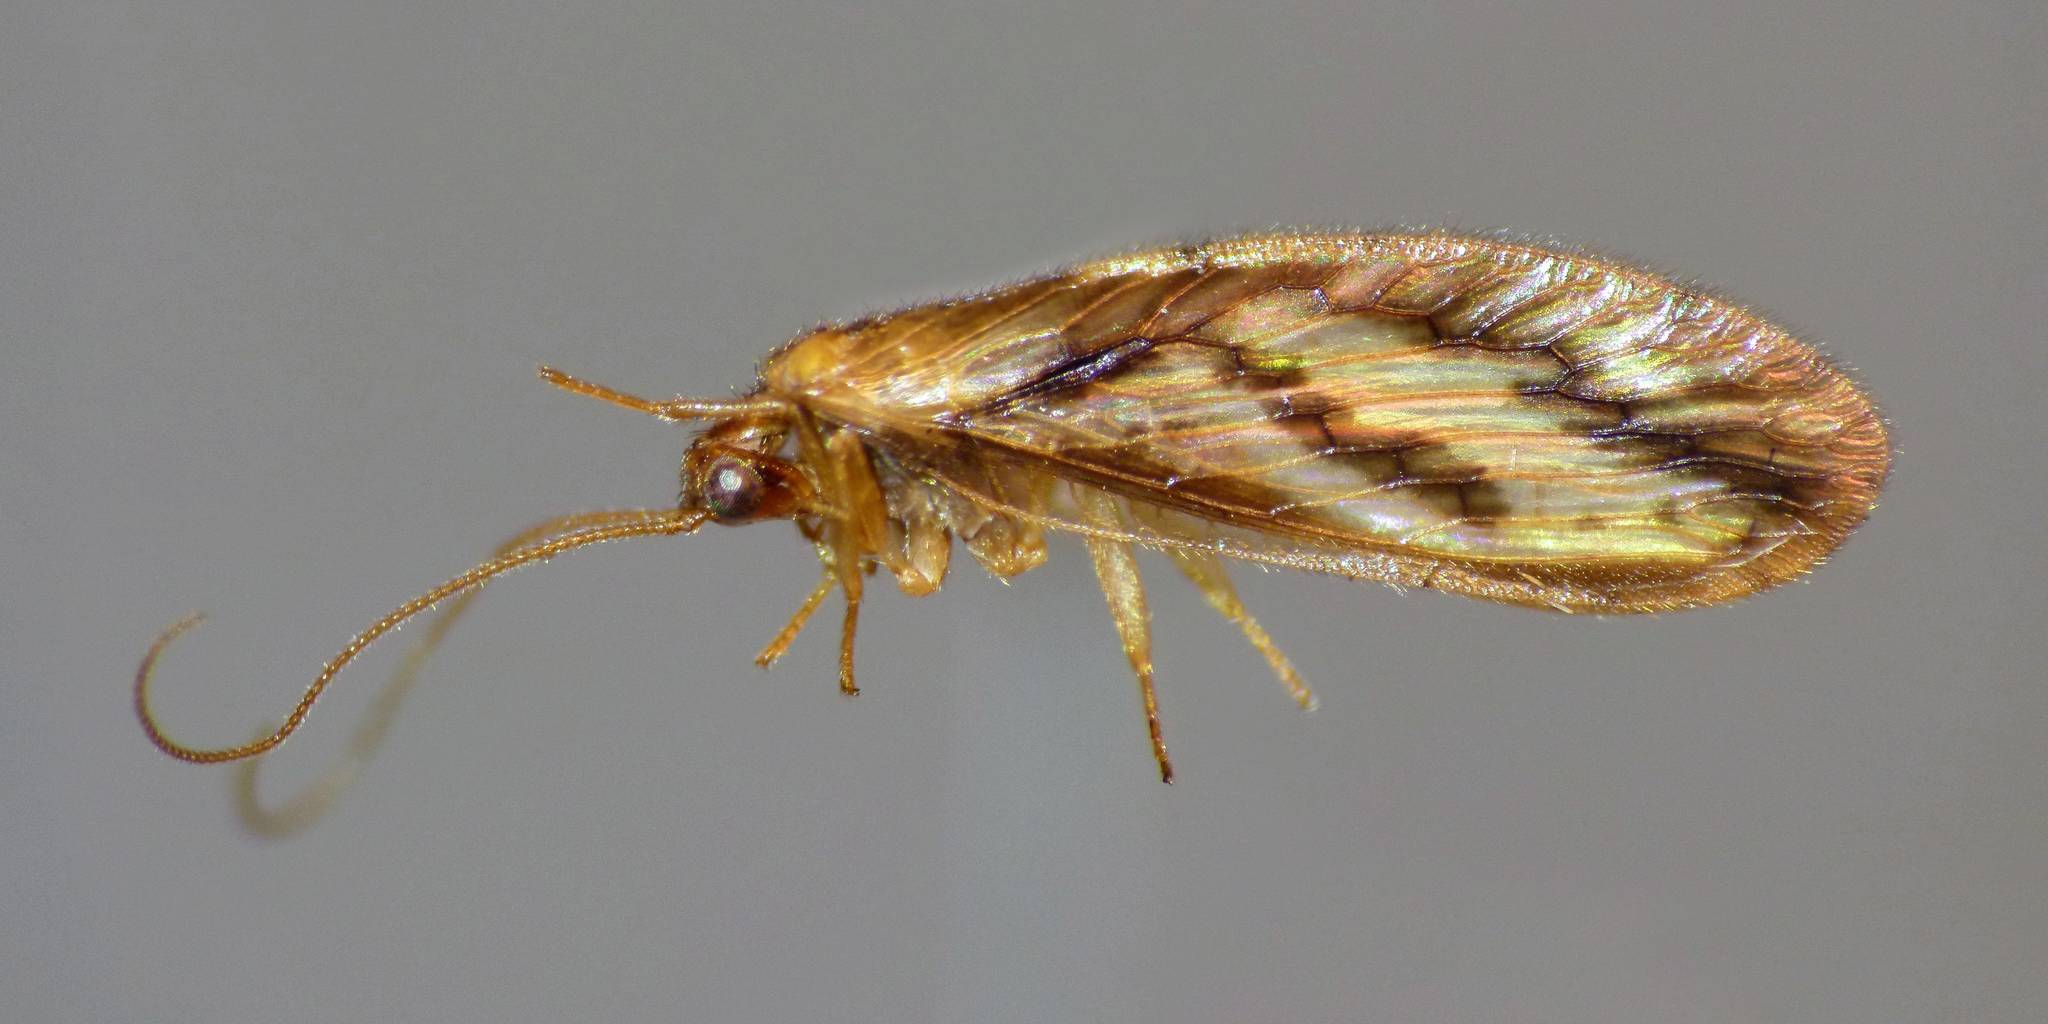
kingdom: Animalia
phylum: Arthropoda
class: Insecta
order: Neuroptera
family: Hemerobiidae
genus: Micromus
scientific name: Micromus bifasciatus
